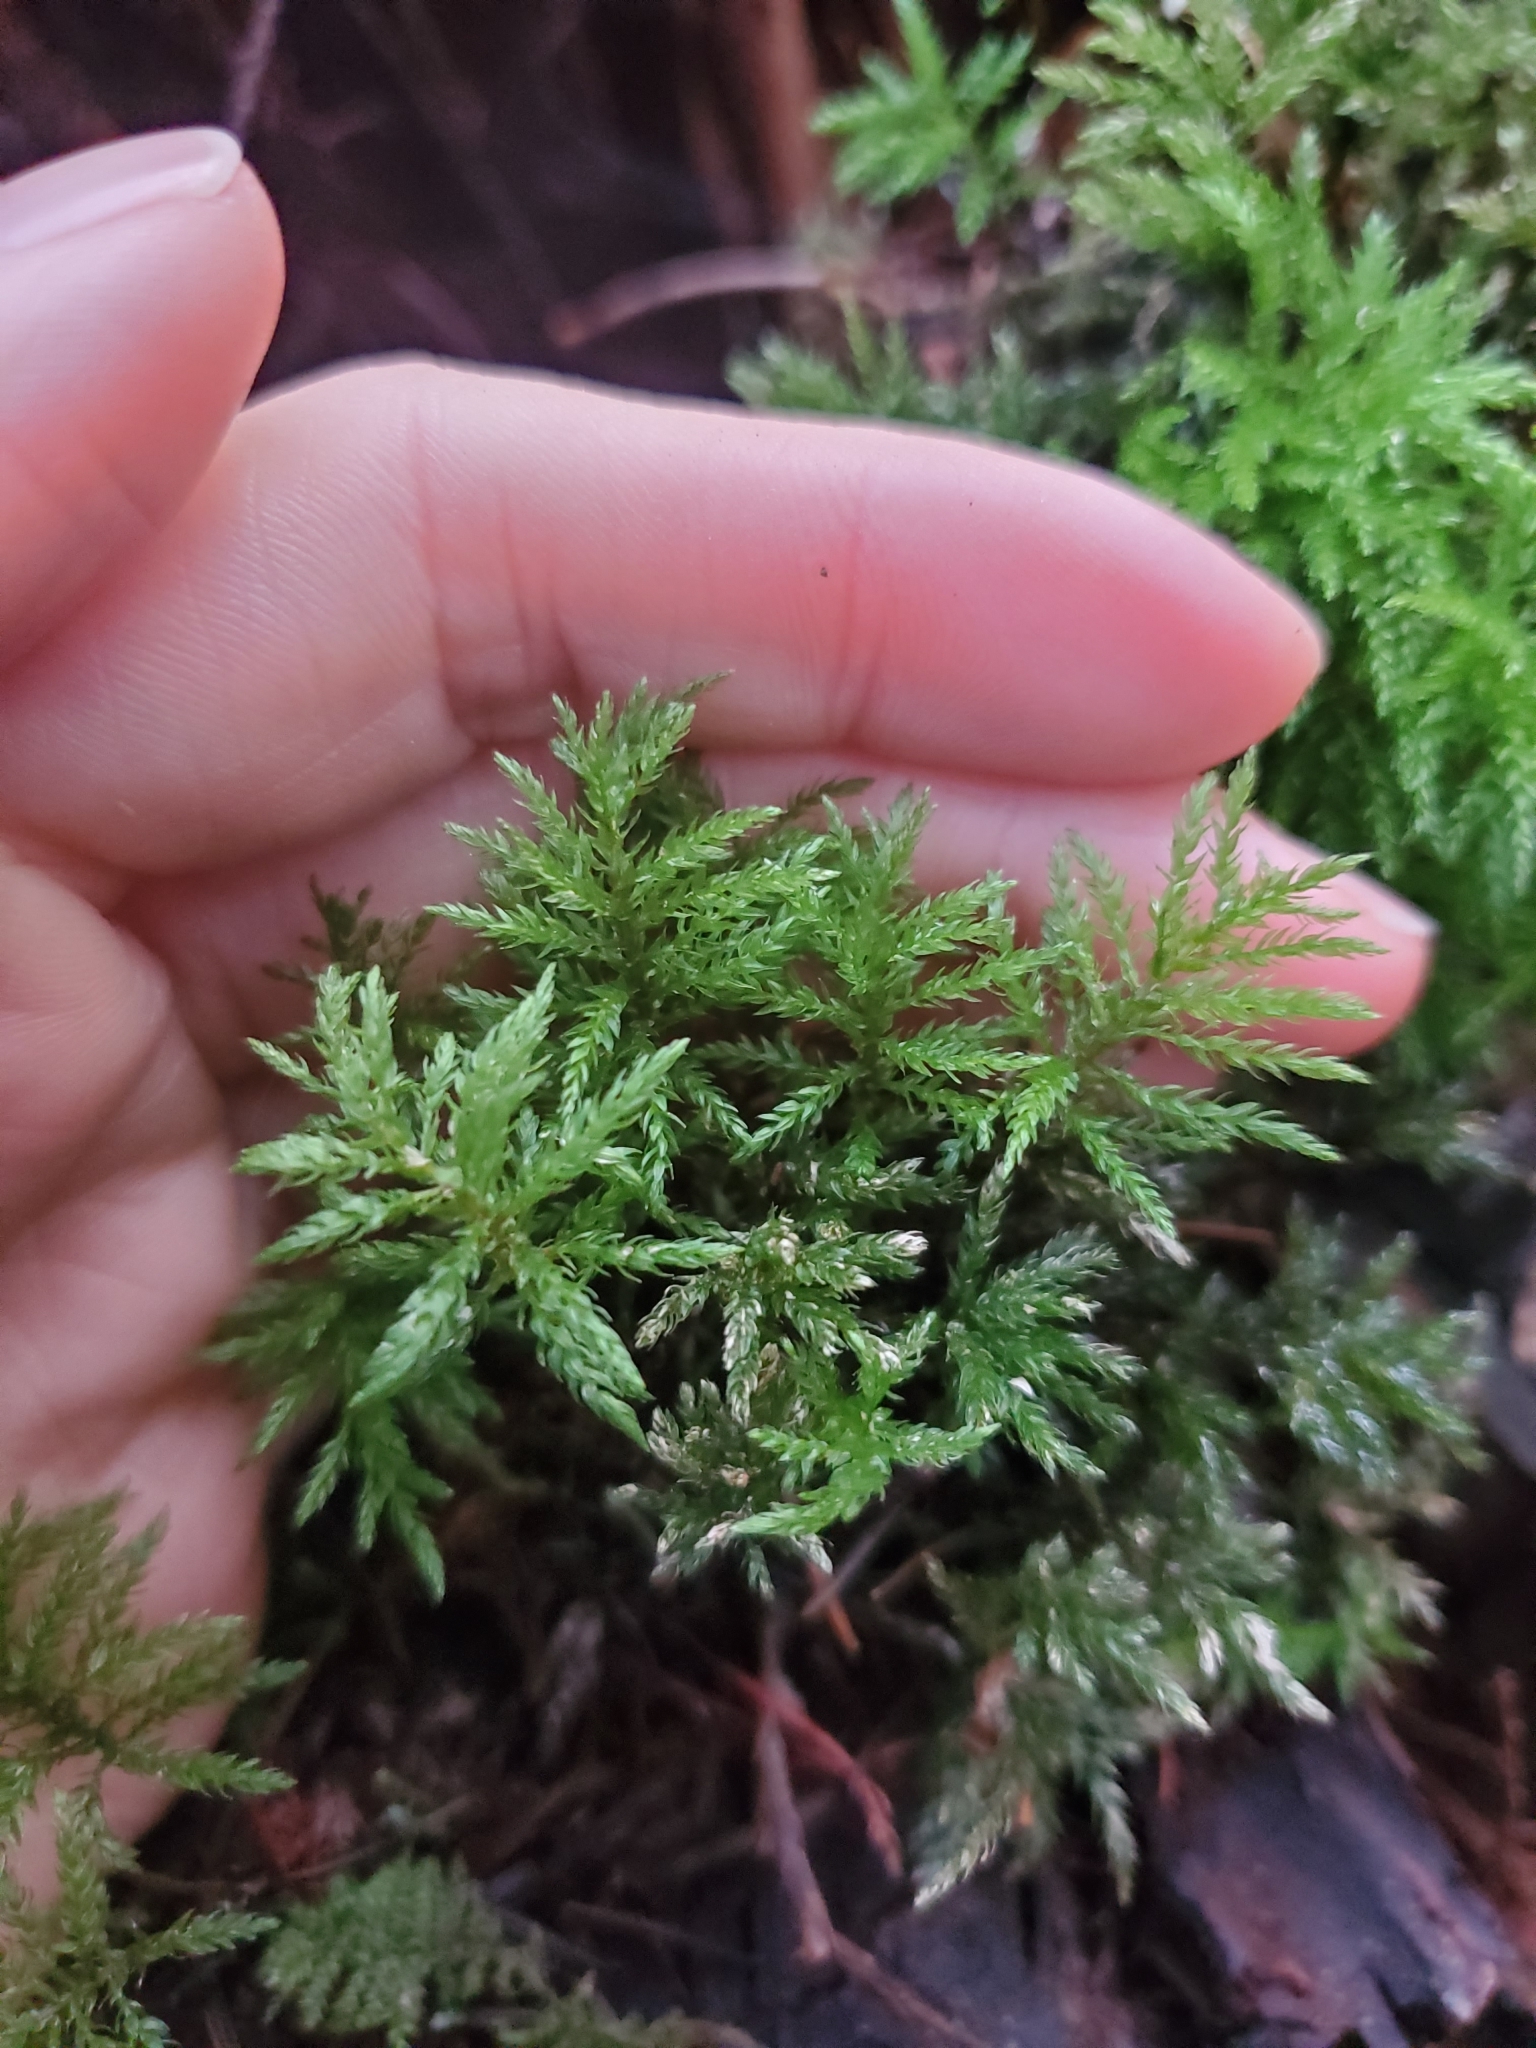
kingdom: Plantae
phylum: Bryophyta
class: Bryopsida
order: Bryales
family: Mniaceae
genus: Leucolepis
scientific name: Leucolepis acanthoneura
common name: Leucolepis umbrella moss
